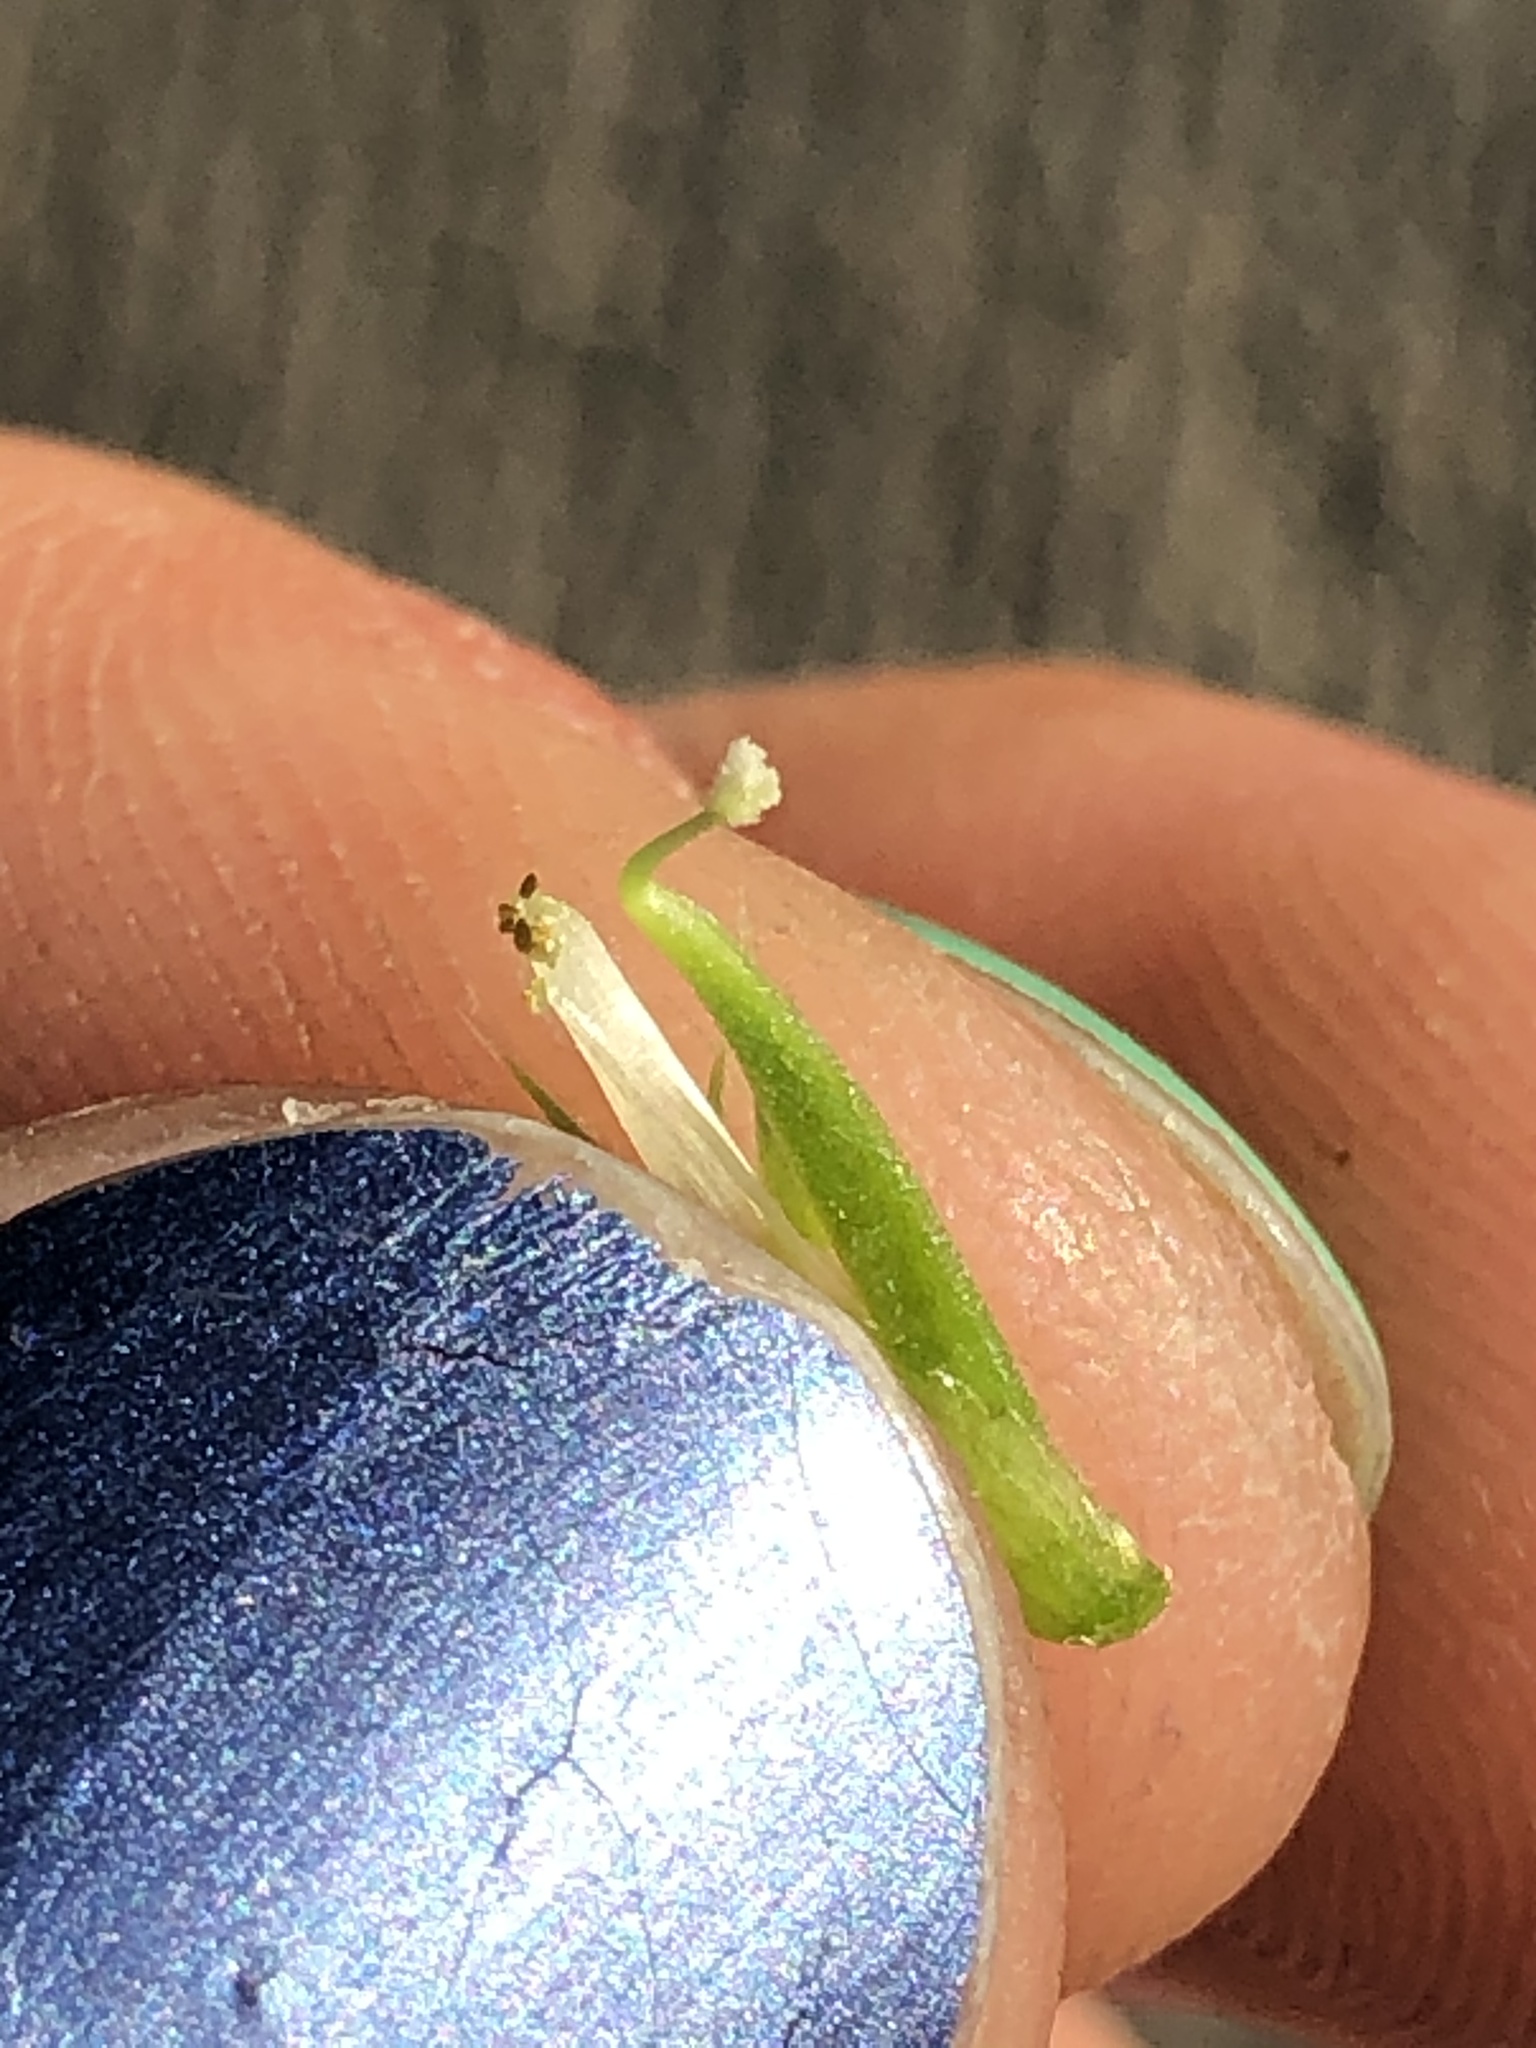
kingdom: Plantae
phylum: Tracheophyta
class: Magnoliopsida
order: Fabales
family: Fabaceae
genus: Vicia
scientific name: Vicia sativa
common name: Garden vetch
